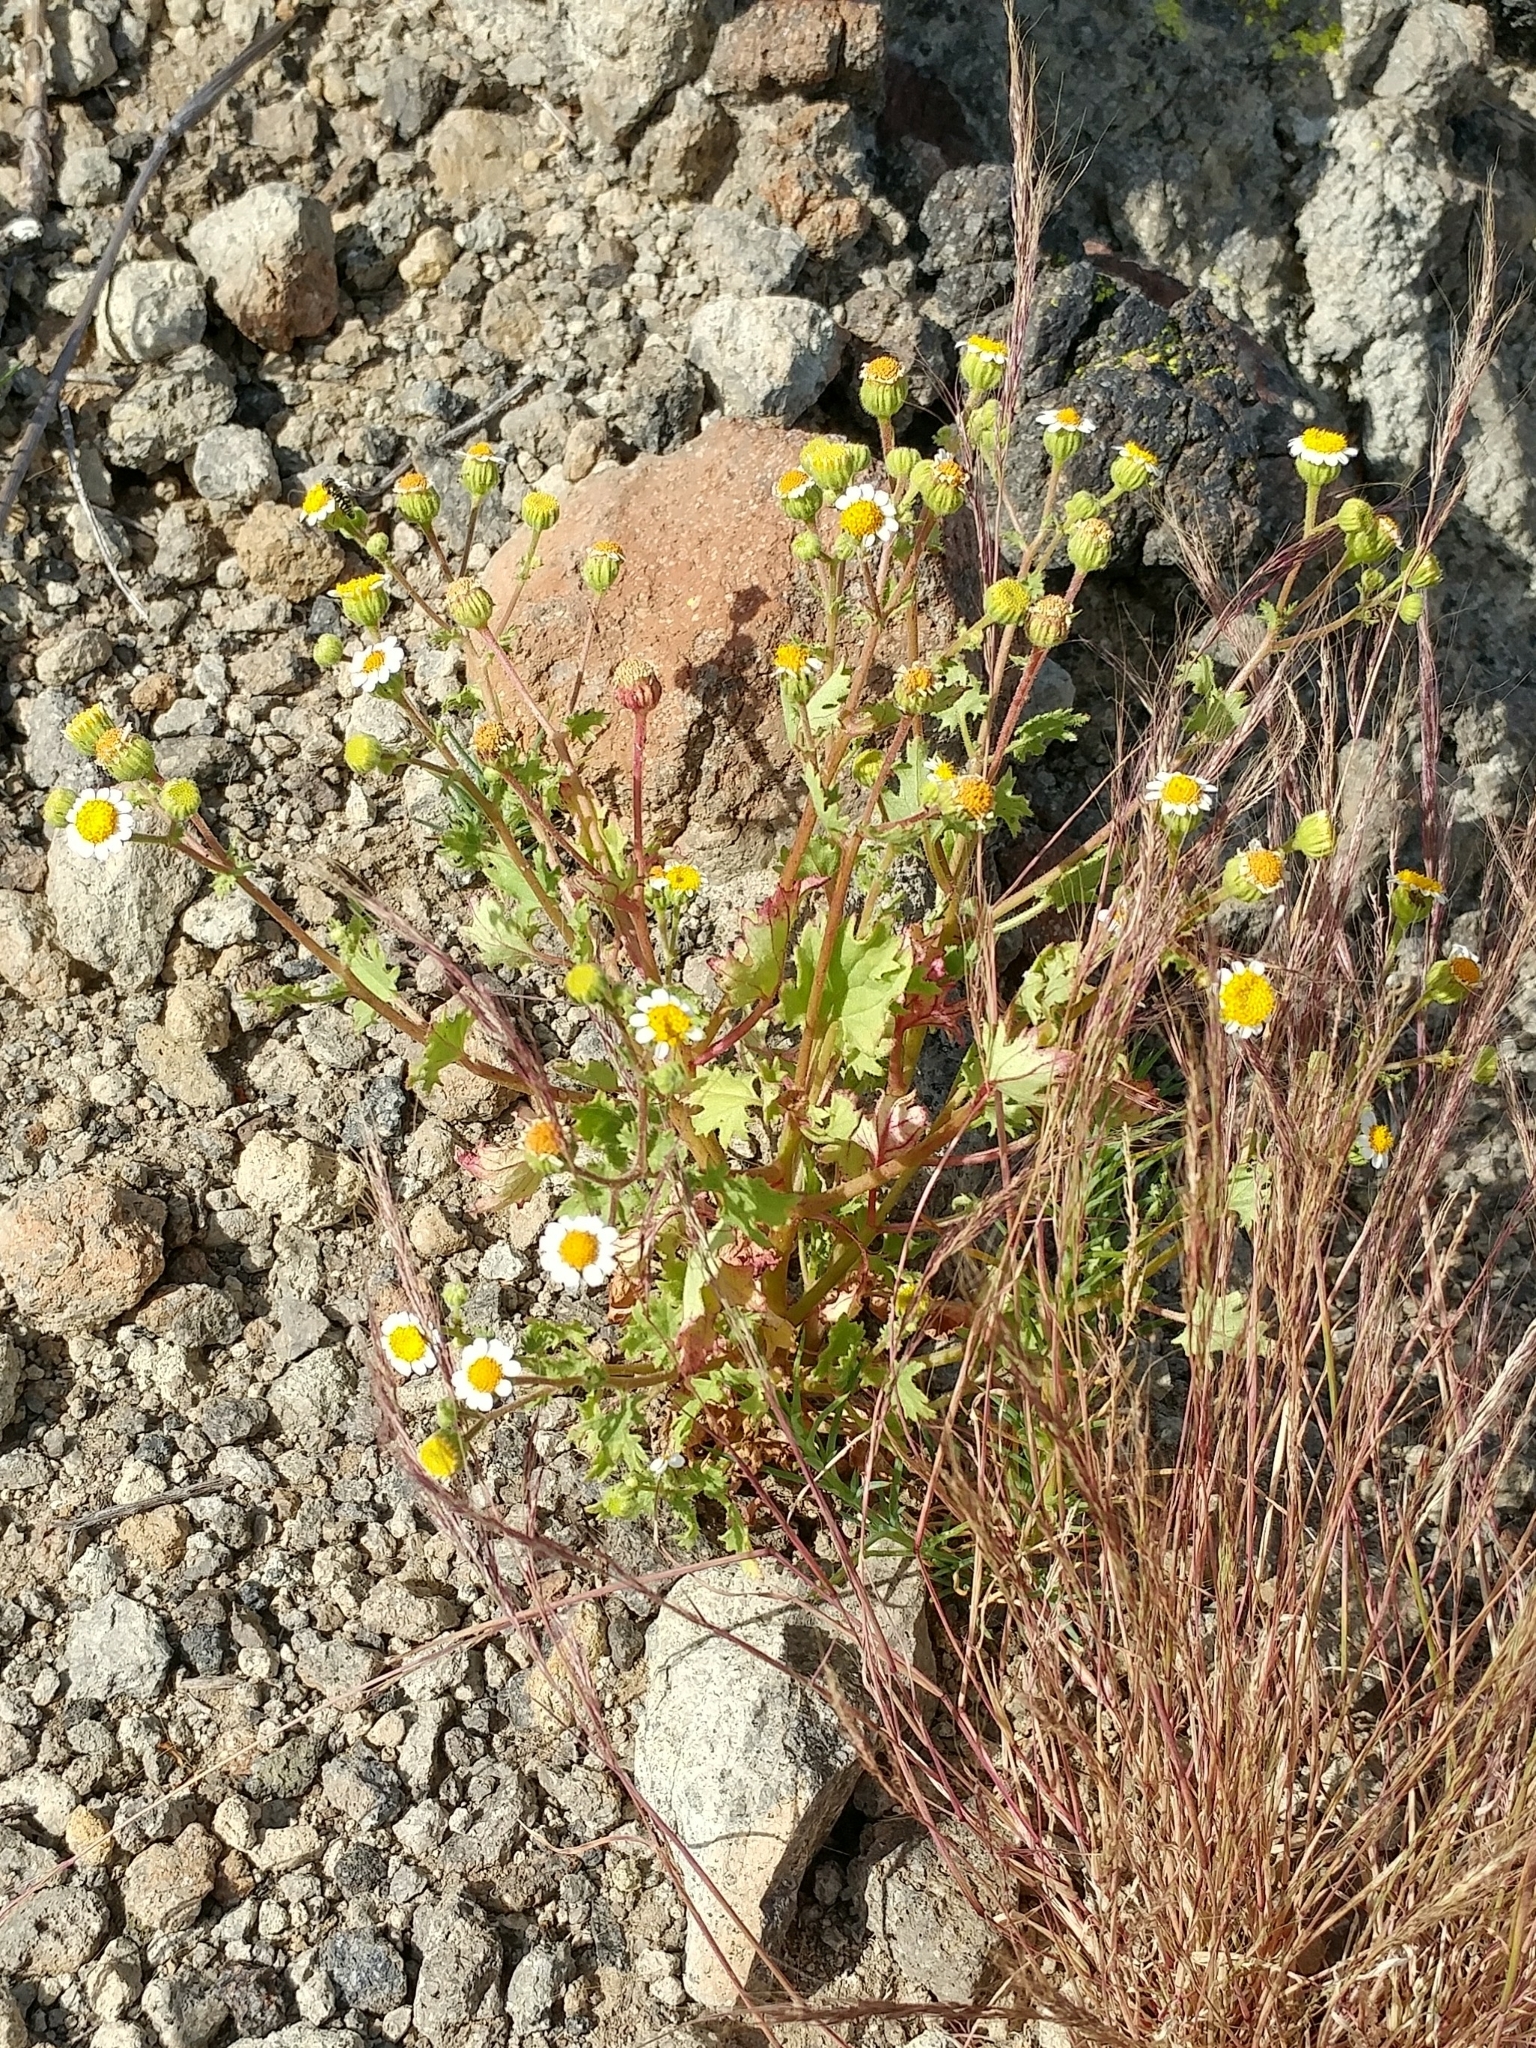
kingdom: Plantae
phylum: Tracheophyta
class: Magnoliopsida
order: Asterales
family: Asteraceae
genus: Laphamia
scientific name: Laphamia emoryi
